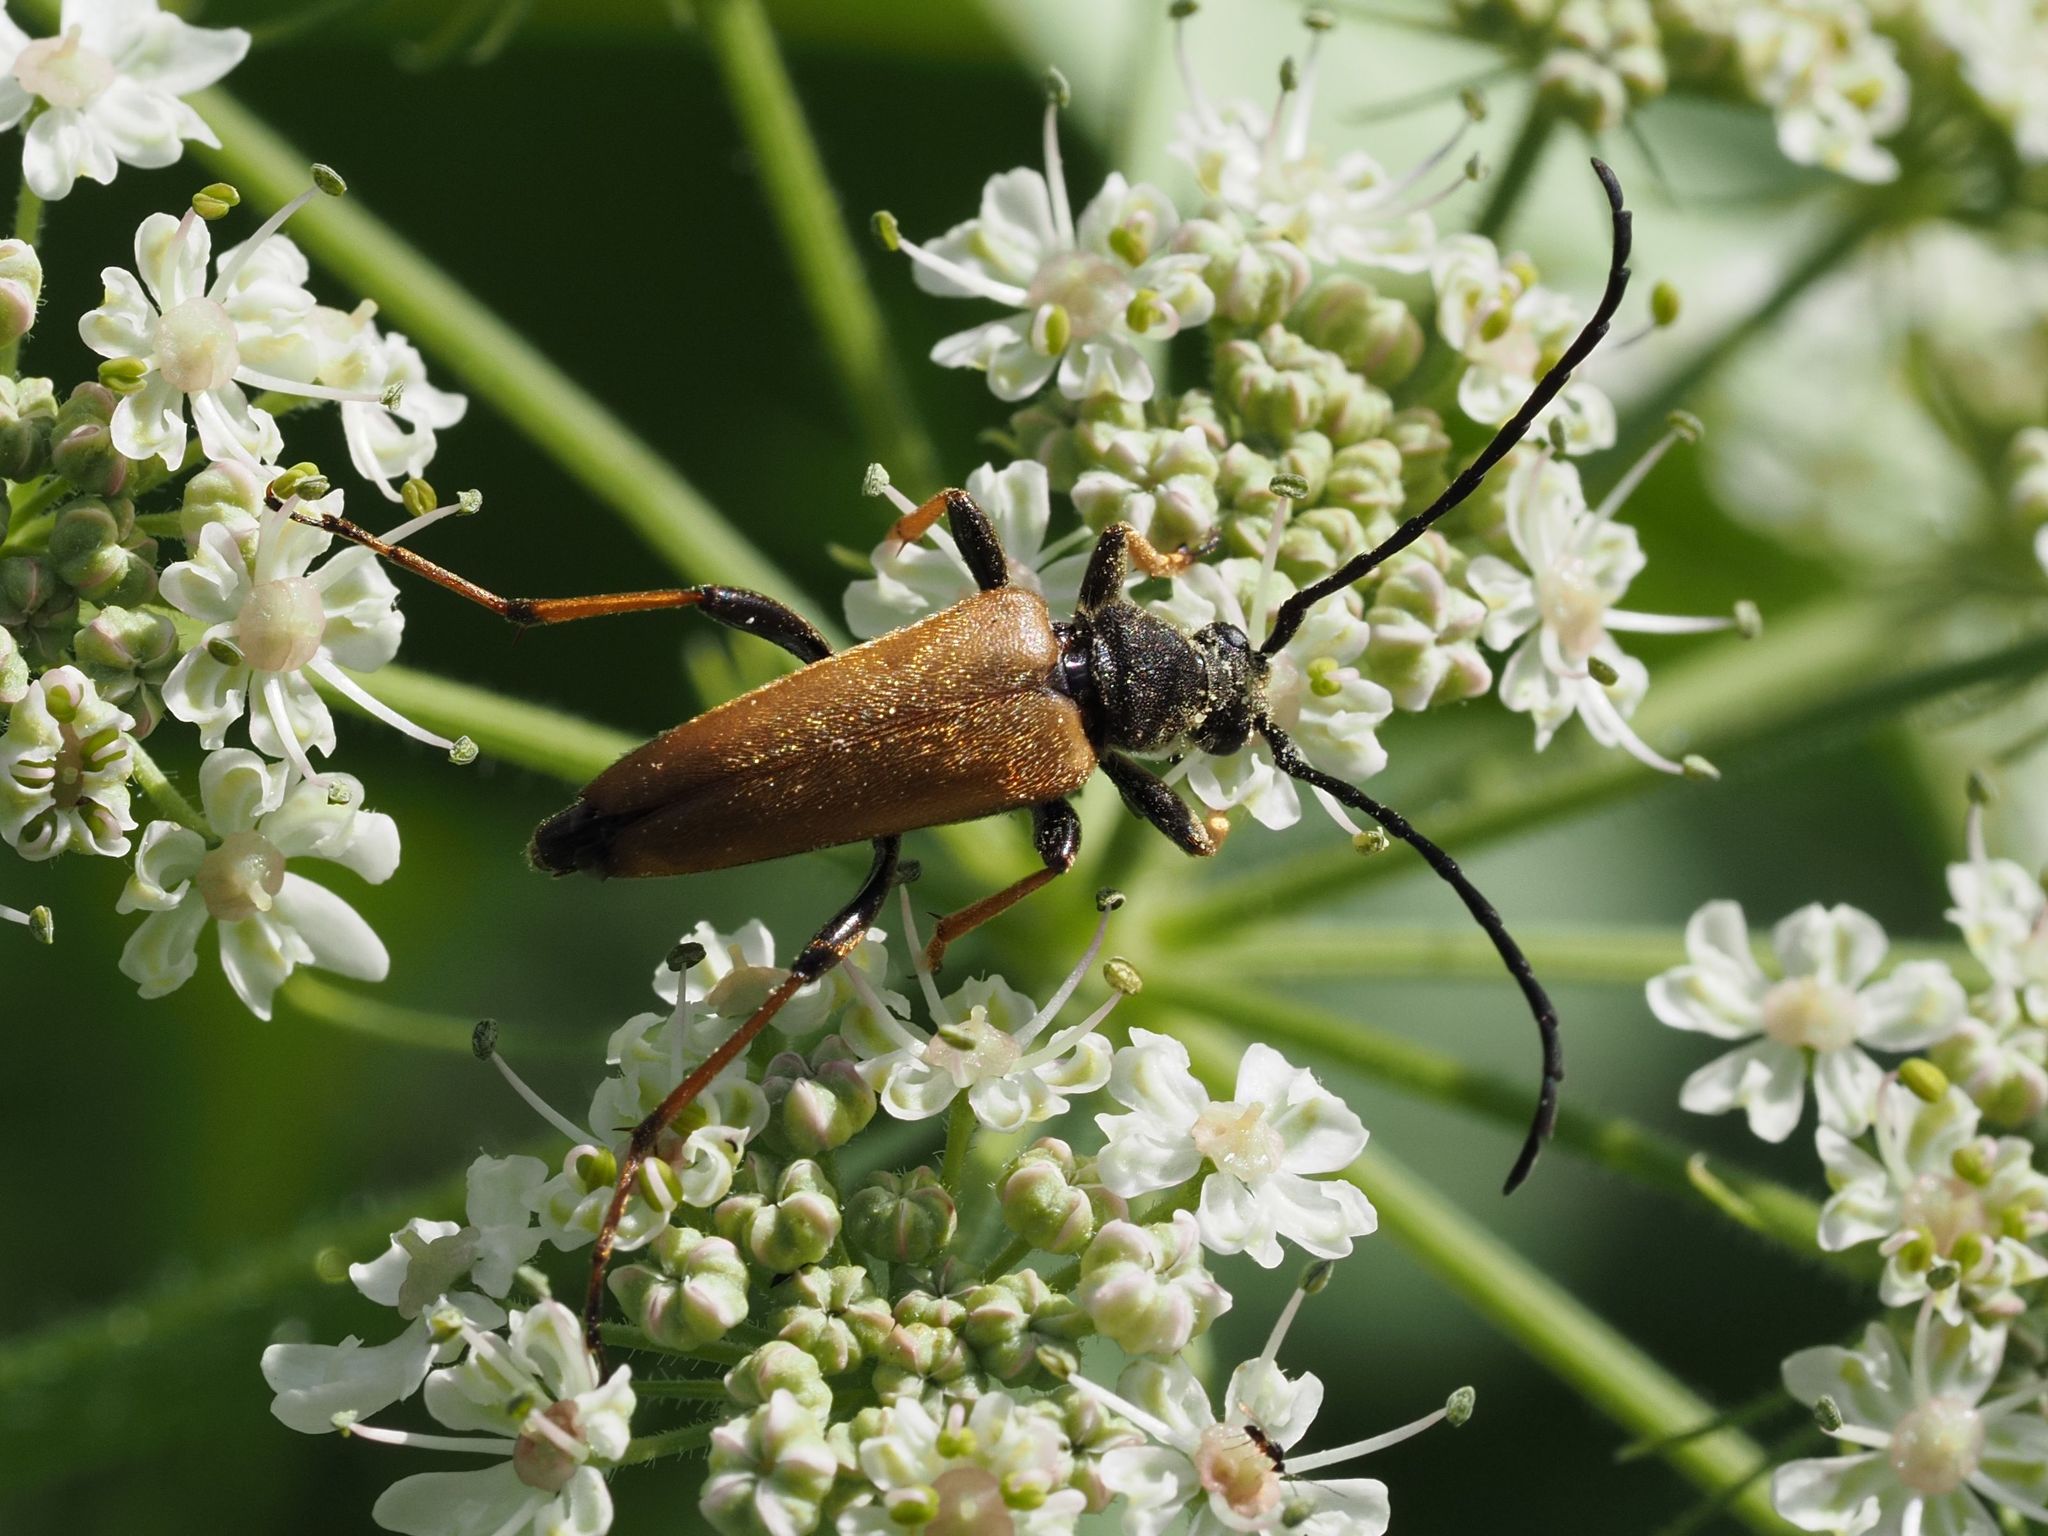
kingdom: Animalia
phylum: Arthropoda
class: Insecta
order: Coleoptera
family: Cerambycidae
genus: Stictoleptura
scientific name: Stictoleptura rubra
